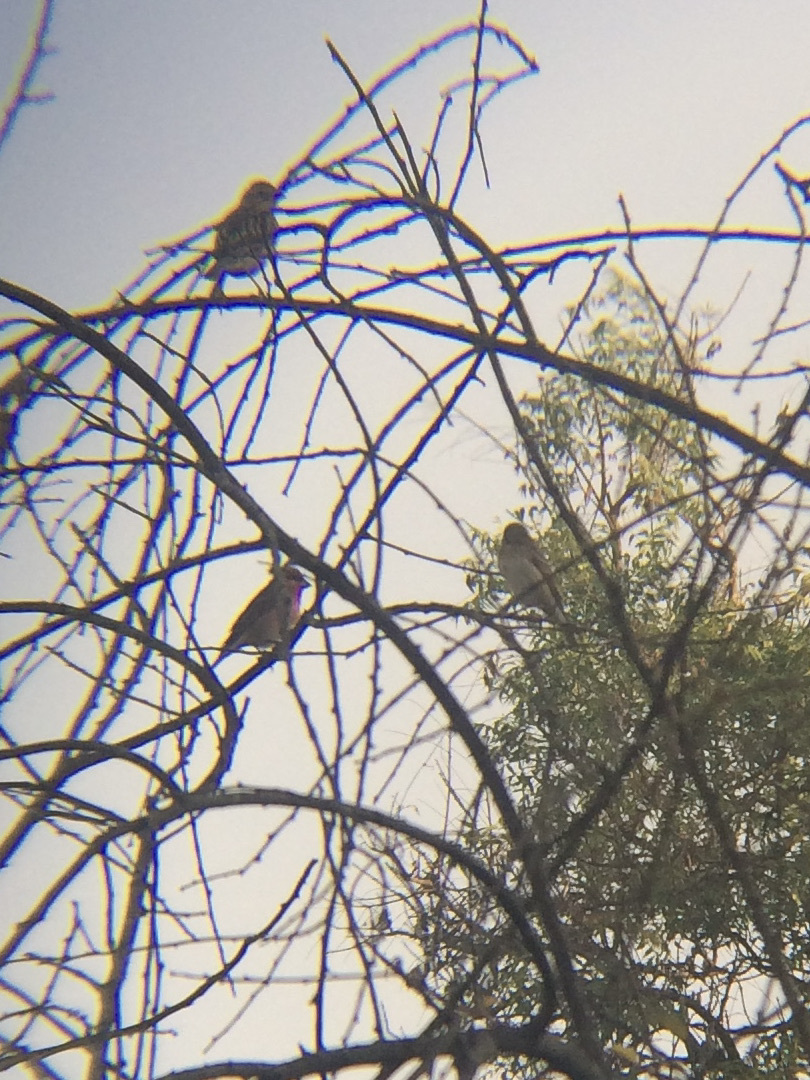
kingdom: Animalia
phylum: Chordata
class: Aves
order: Passeriformes
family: Fringillidae
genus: Carpodacus
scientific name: Carpodacus erythrinus
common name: Common rosefinch
